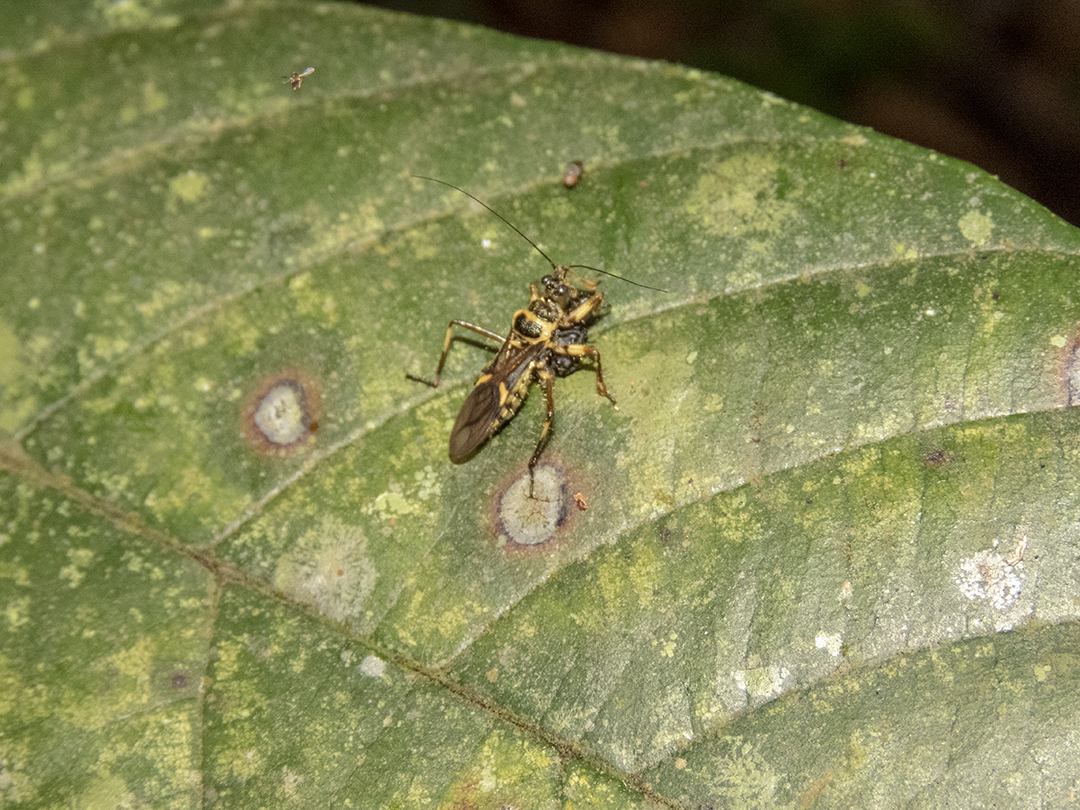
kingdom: Animalia
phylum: Arthropoda
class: Insecta
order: Hemiptera
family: Reduviidae
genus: Inara
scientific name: Inara flavopicta
